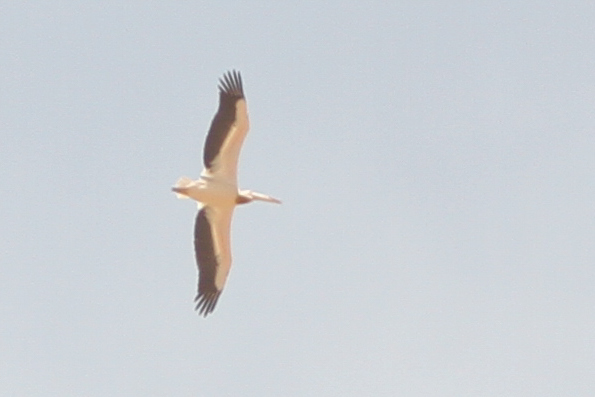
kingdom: Animalia
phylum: Chordata
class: Aves
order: Pelecaniformes
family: Pelecanidae
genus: Pelecanus
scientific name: Pelecanus onocrotalus
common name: Great white pelican
